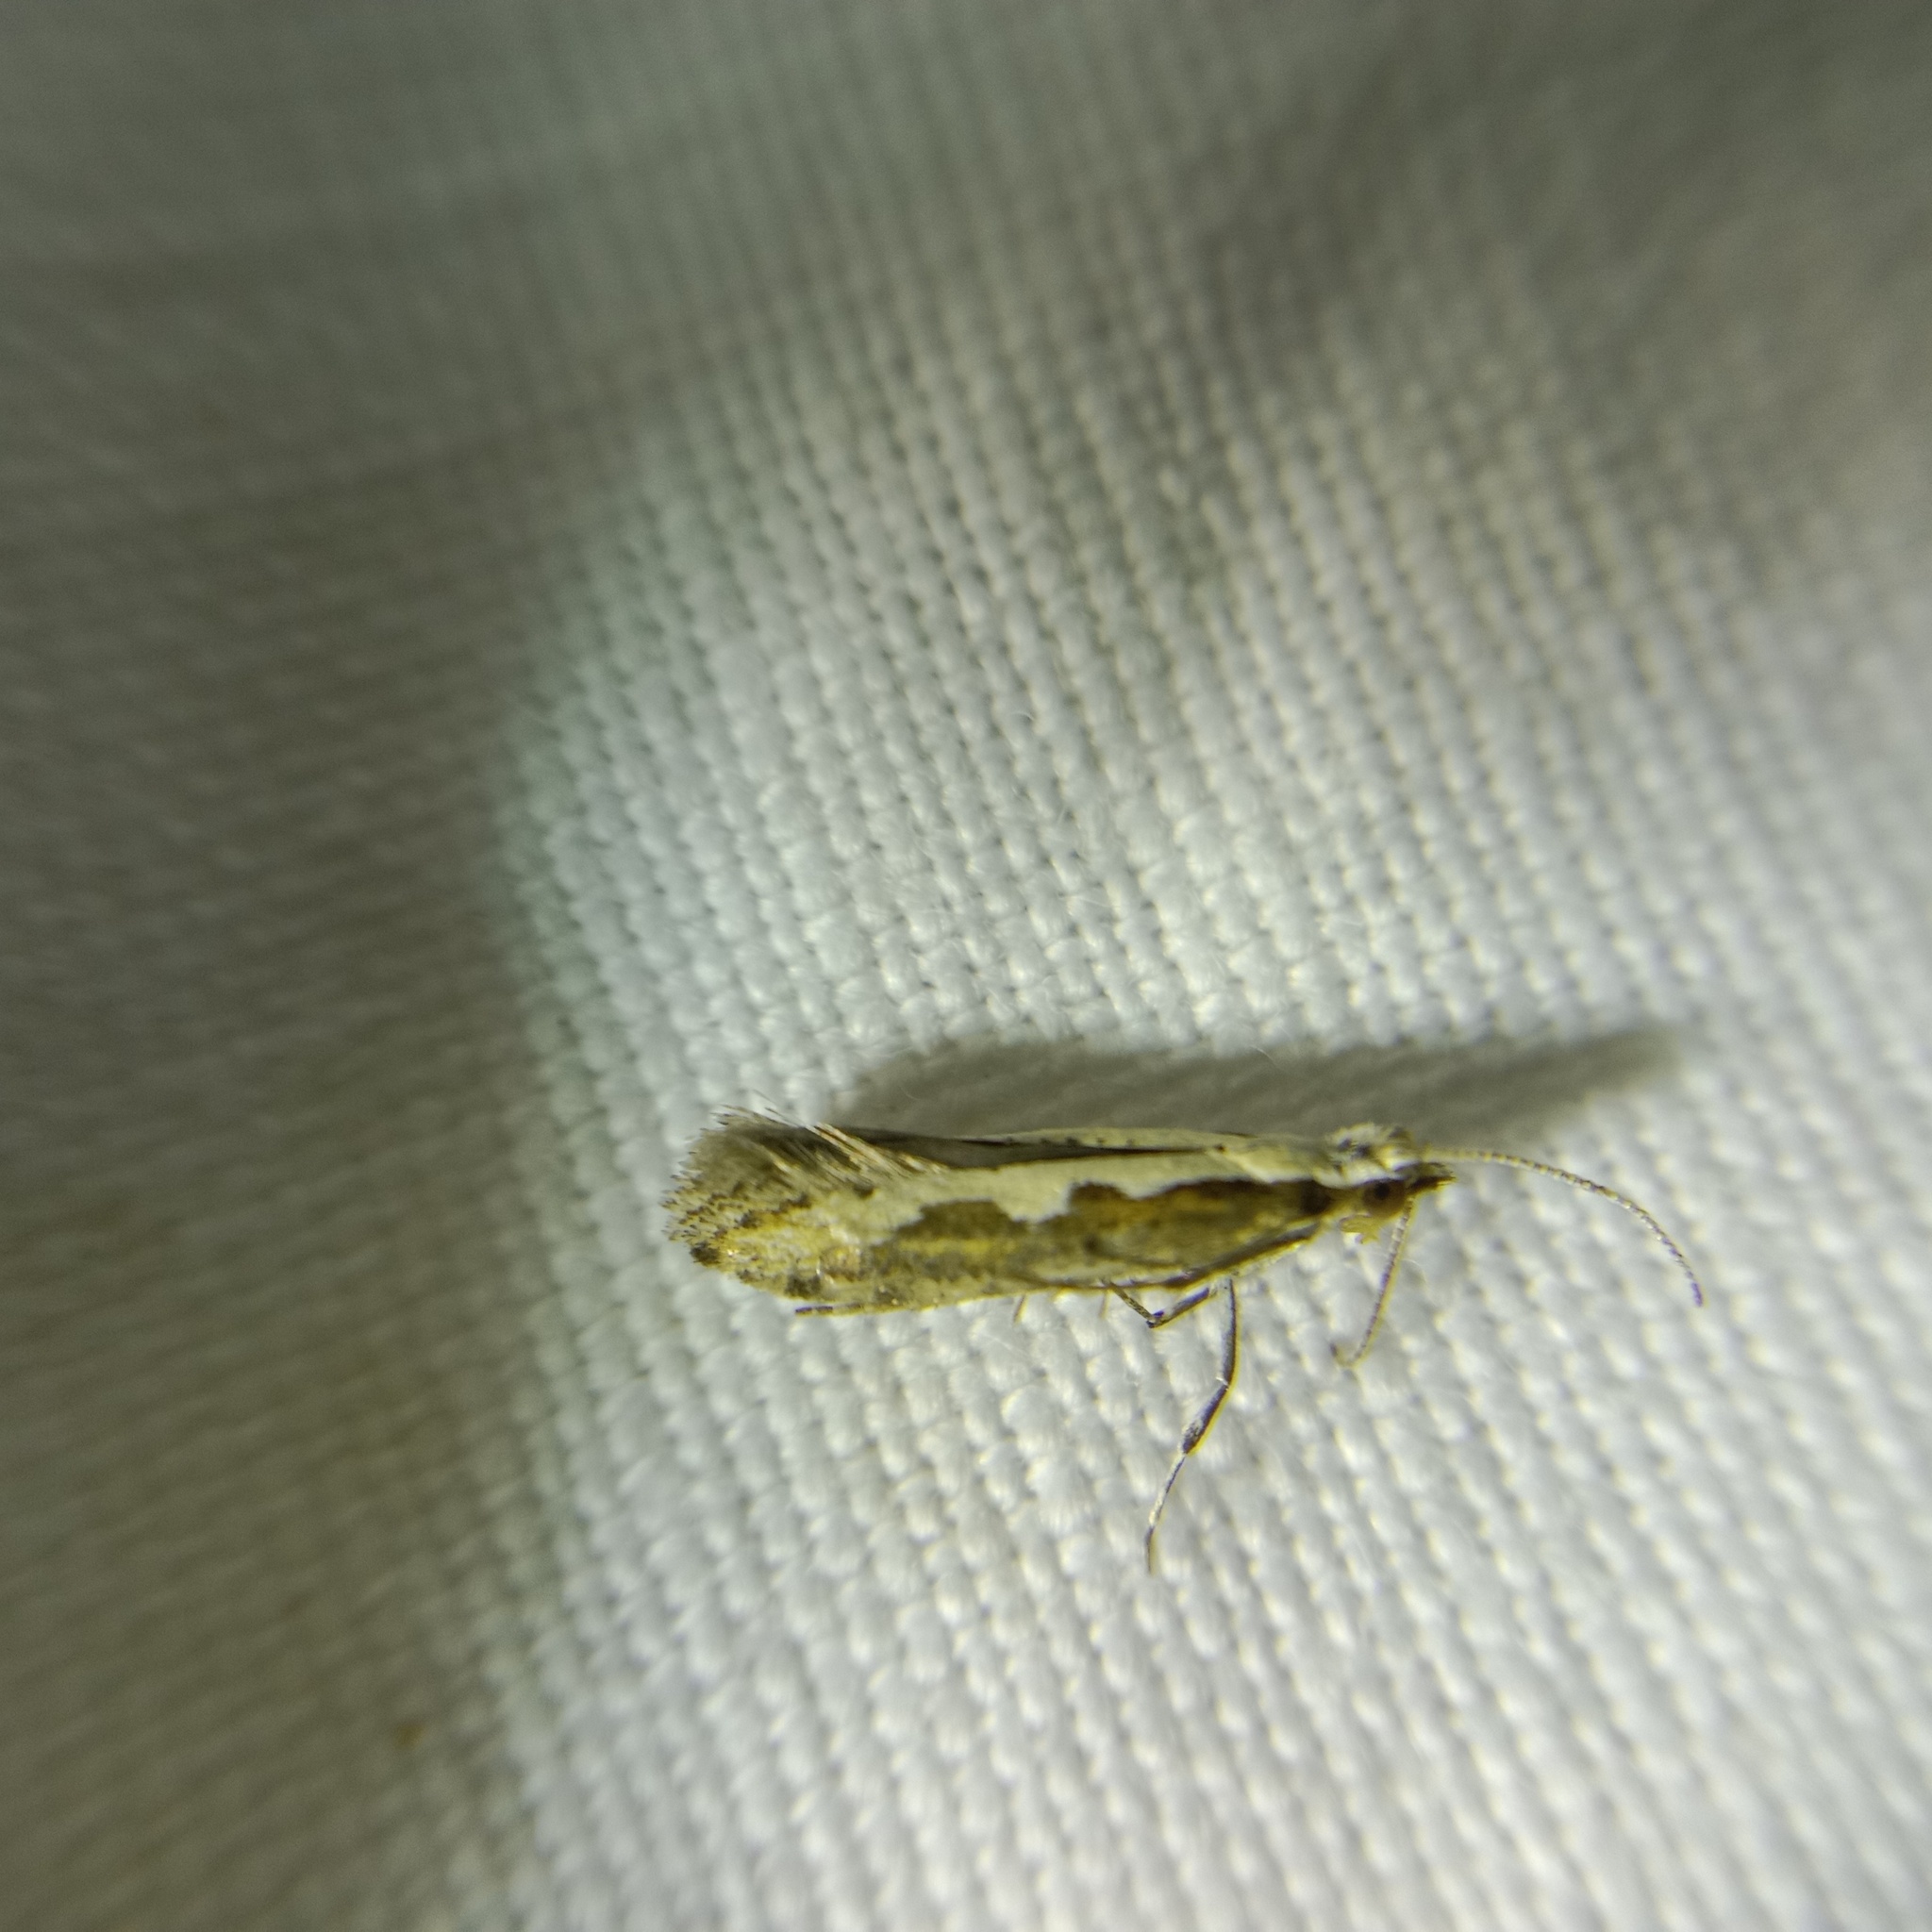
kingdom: Animalia
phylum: Arthropoda
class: Insecta
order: Lepidoptera
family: Plutellidae
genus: Plutella
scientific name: Plutella xylostella
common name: Diamond-back moth
